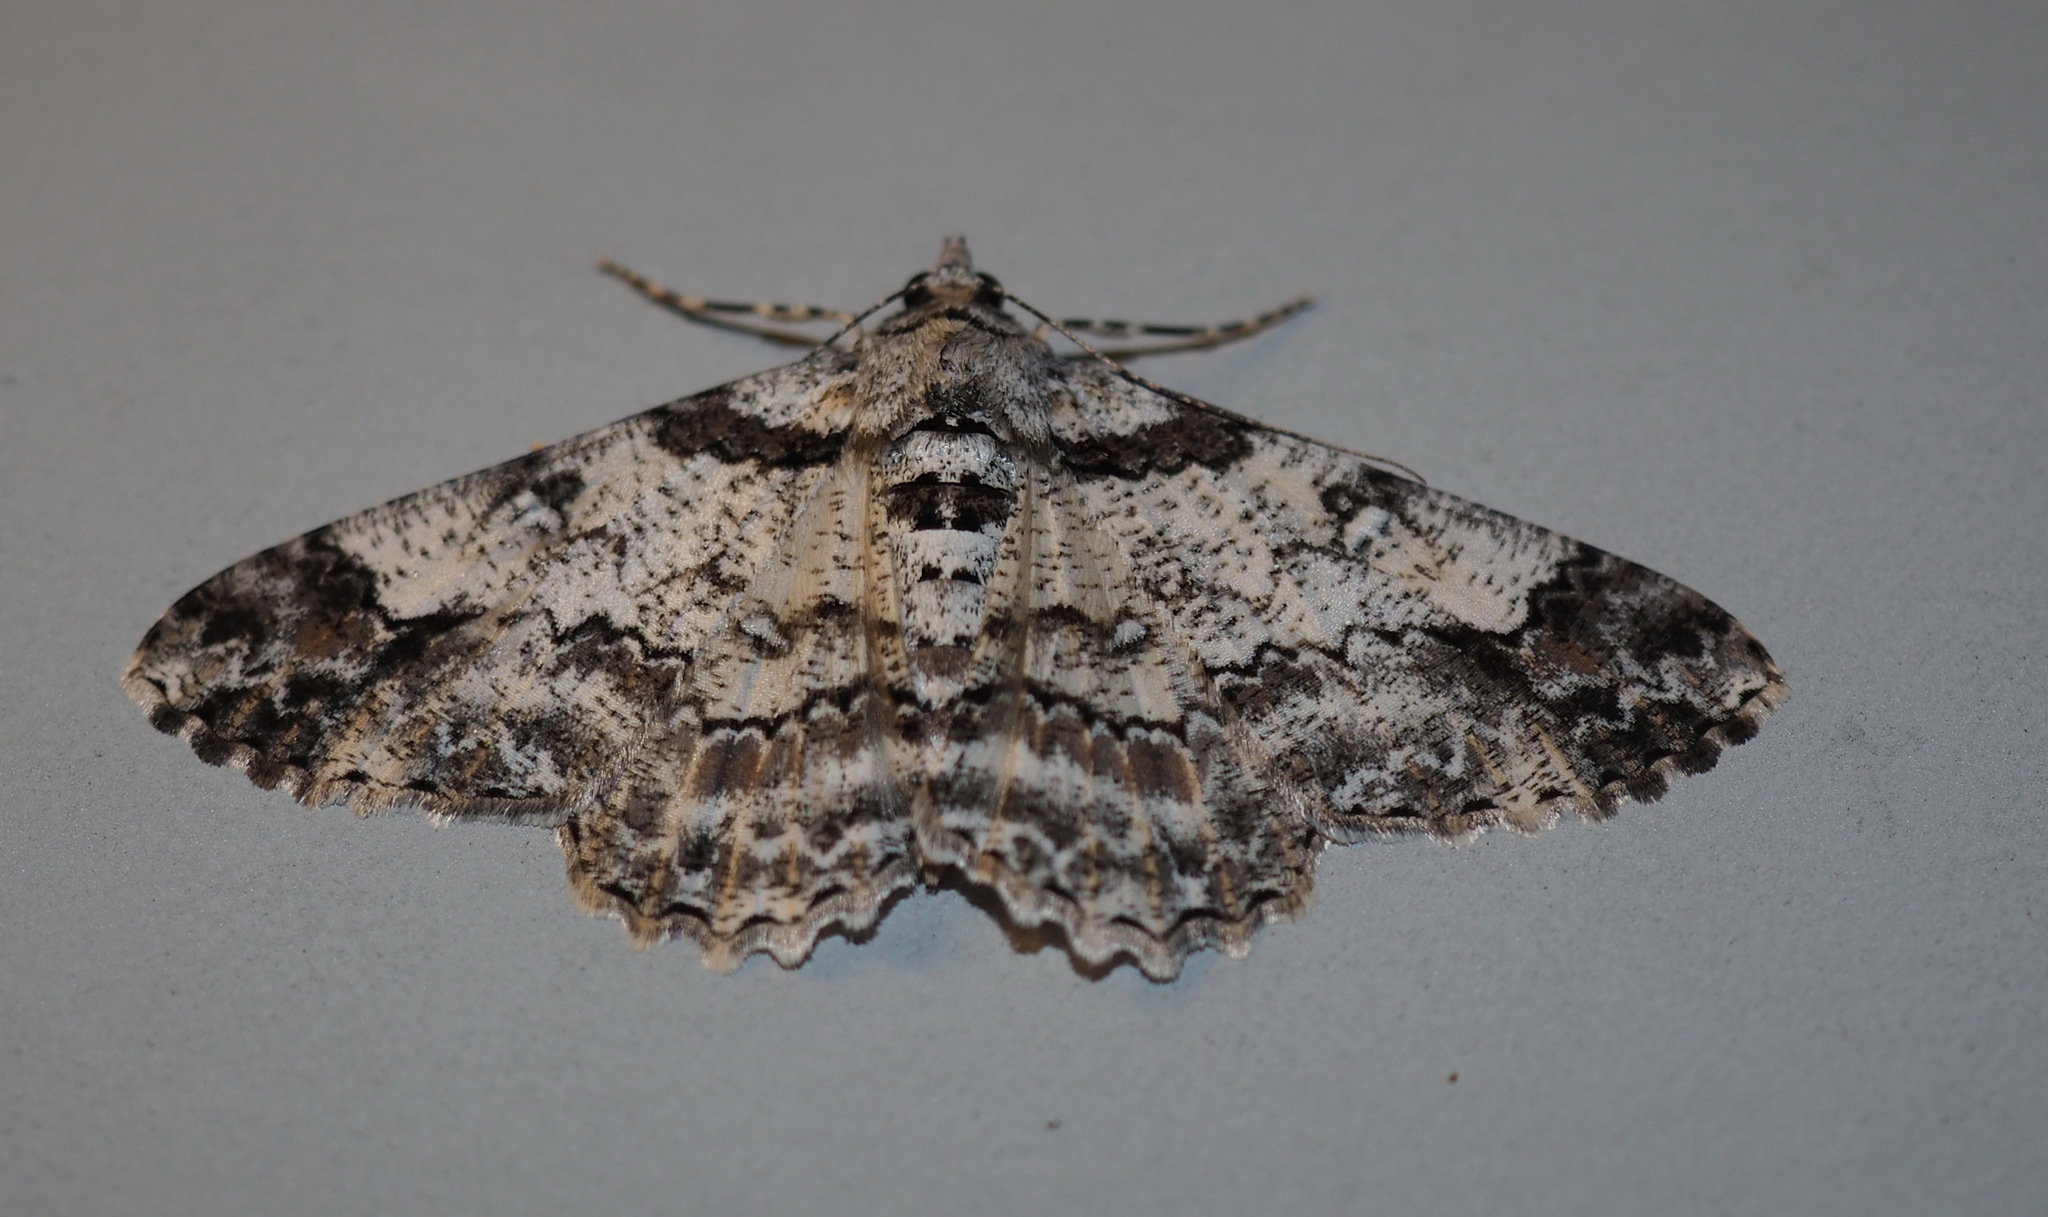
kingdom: Animalia
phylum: Arthropoda
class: Insecta
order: Lepidoptera
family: Geometridae
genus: Cleora
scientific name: Cleora fraterna
